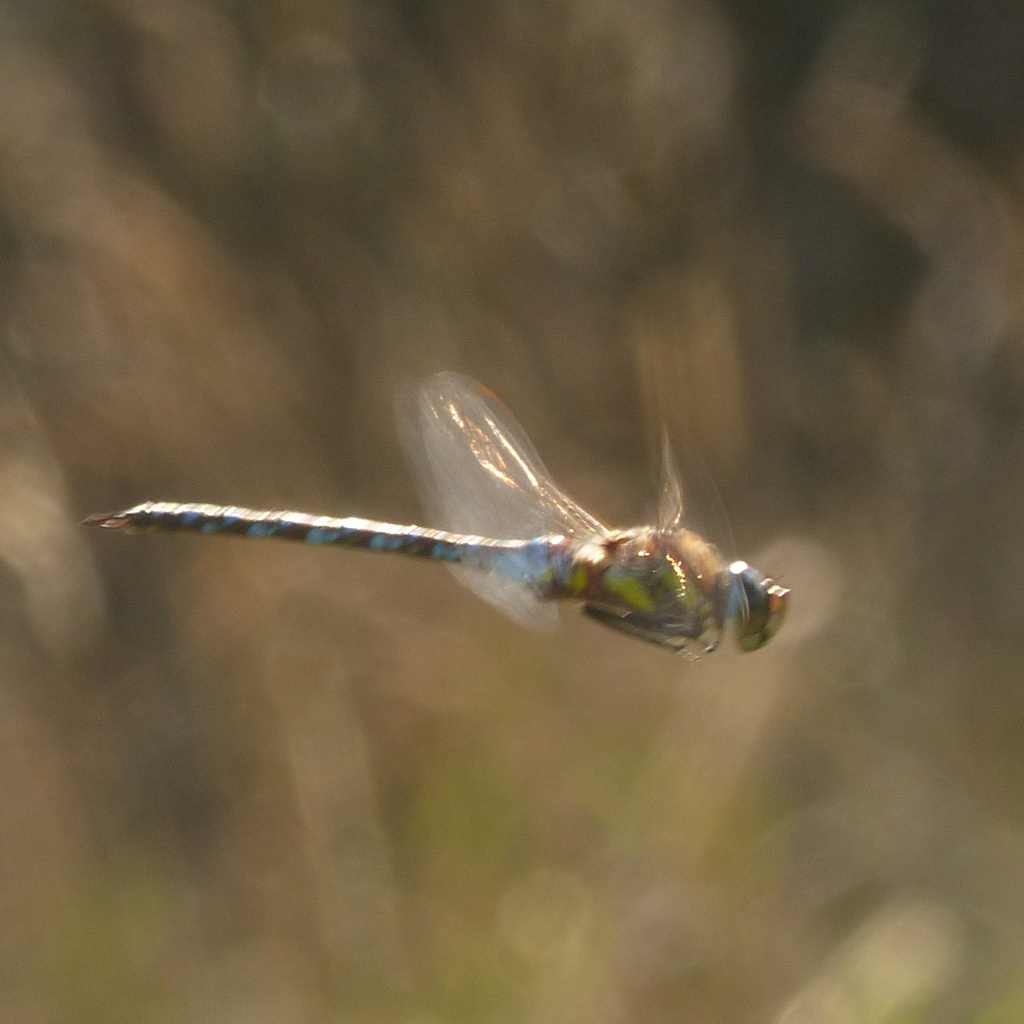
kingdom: Animalia
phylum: Arthropoda
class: Insecta
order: Odonata
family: Aeshnidae
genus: Aeshna
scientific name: Aeshna mixta
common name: Migrant hawker
